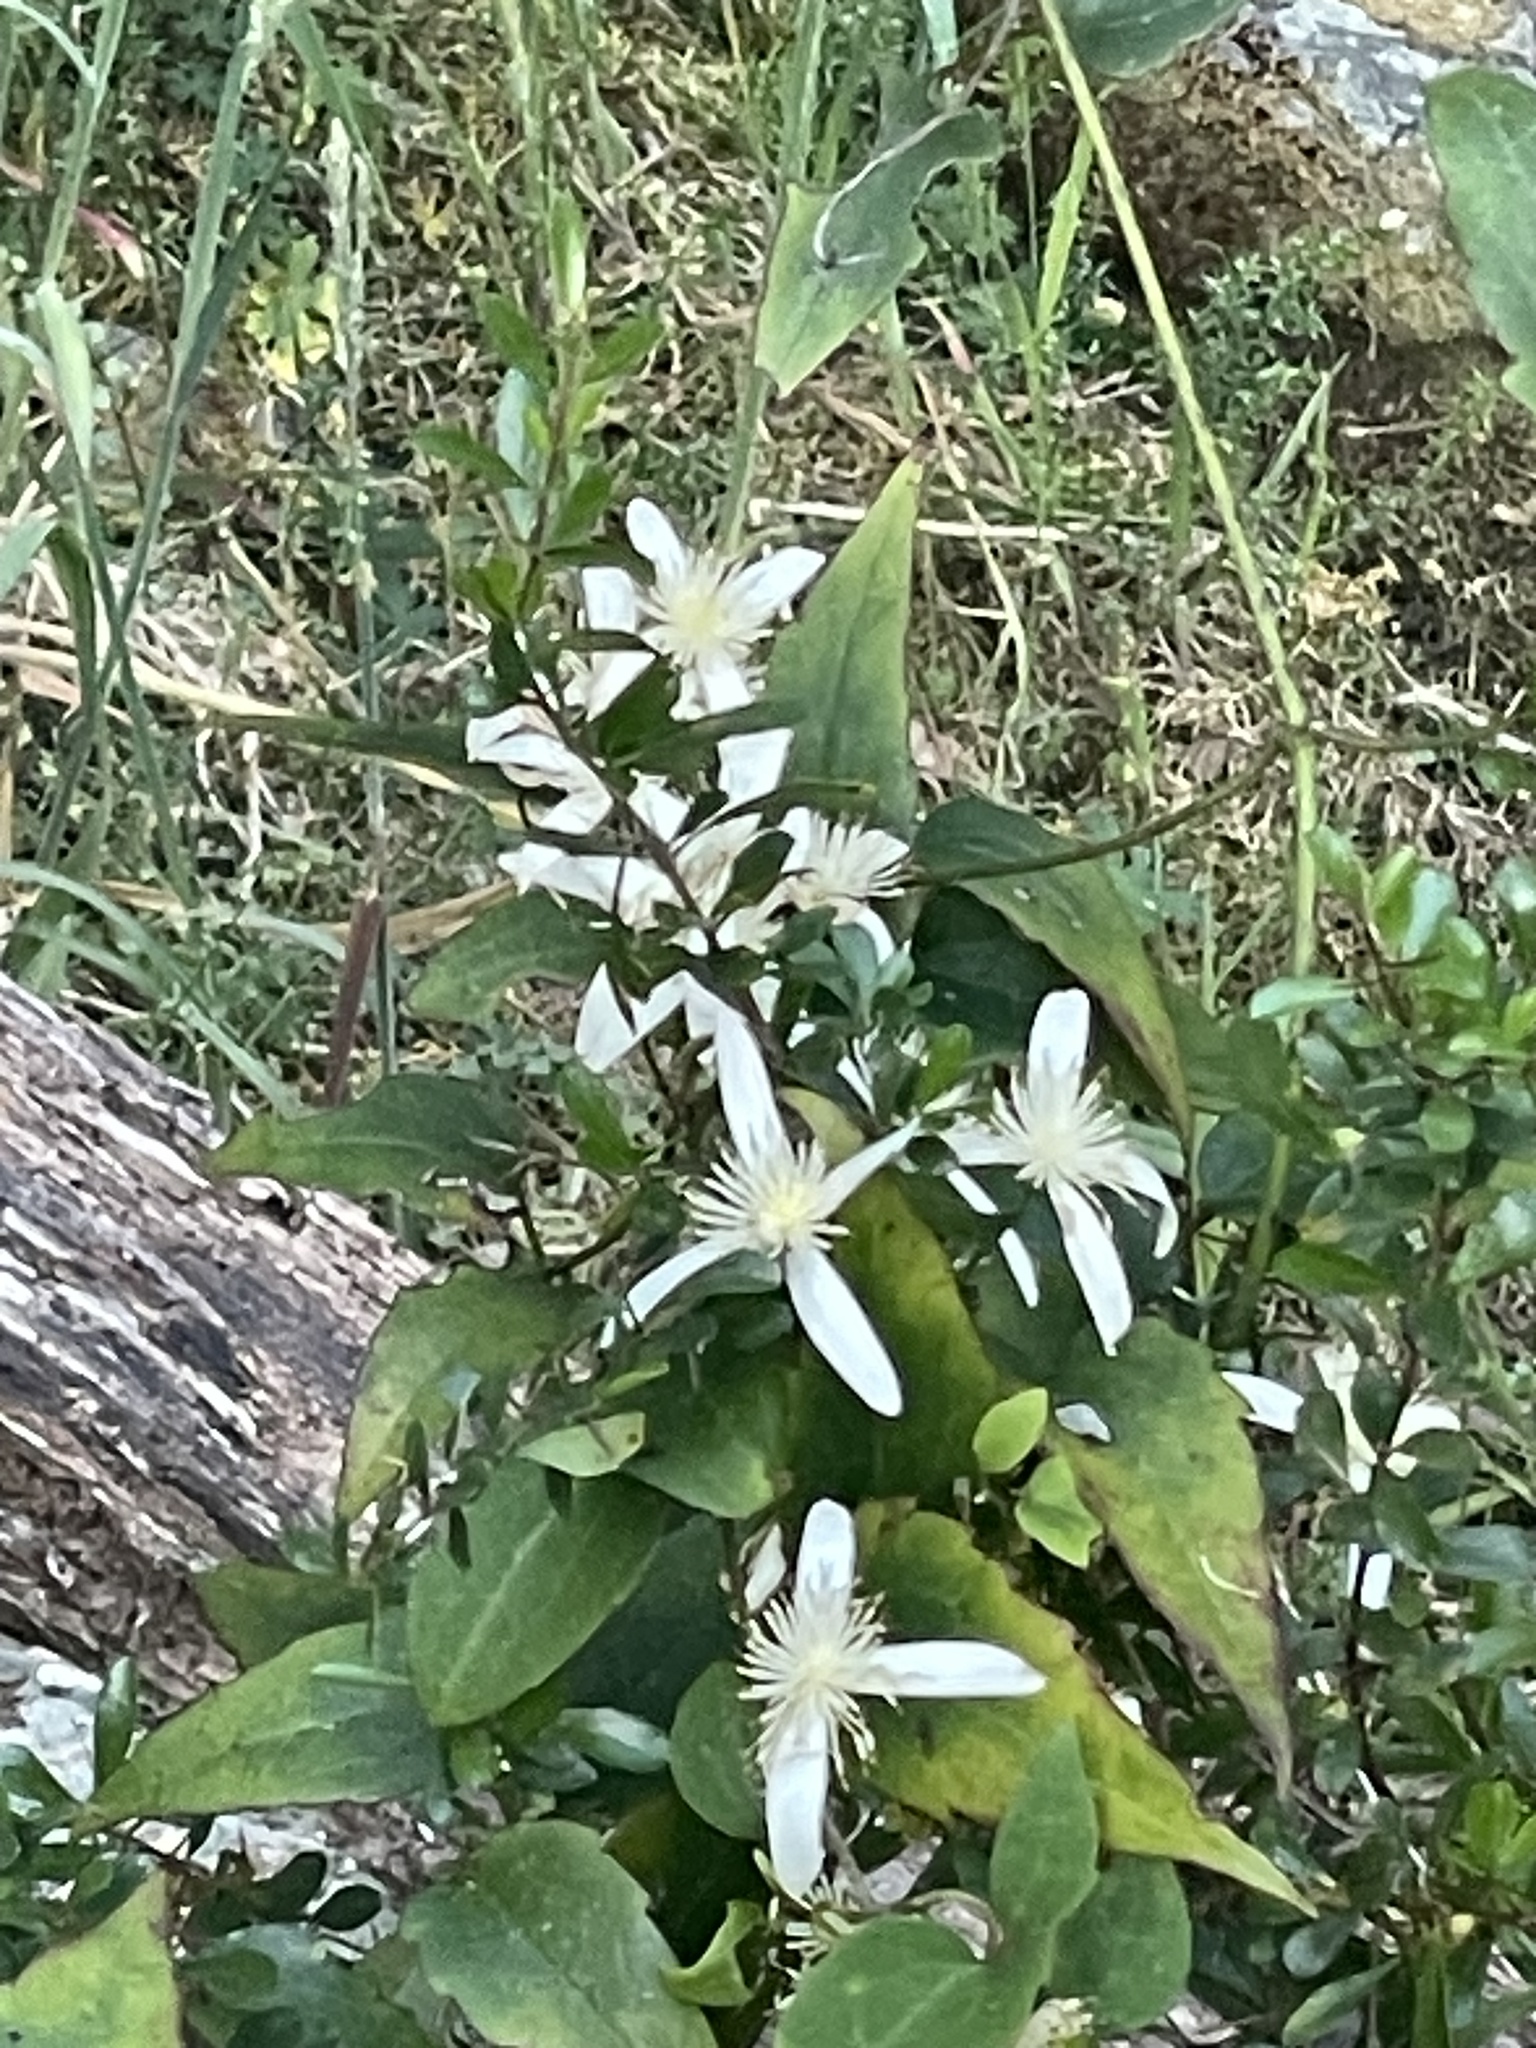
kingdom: Plantae
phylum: Tracheophyta
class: Magnoliopsida
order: Ranunculales
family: Ranunculaceae
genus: Clematis
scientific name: Clematis aristata
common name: Mountain clematis
